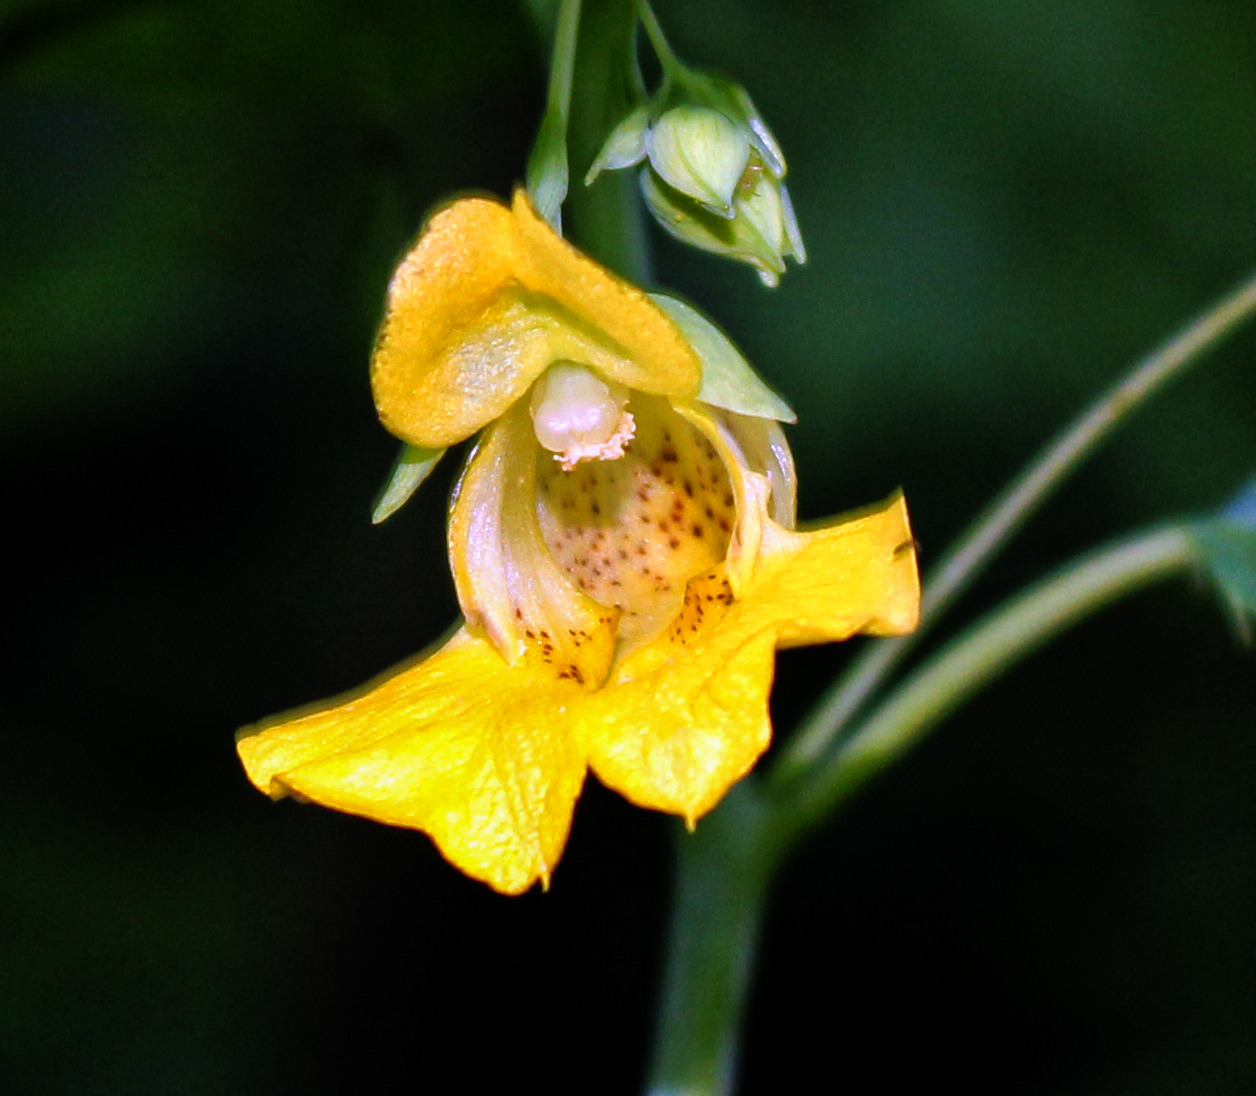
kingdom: Plantae
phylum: Tracheophyta
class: Magnoliopsida
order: Ericales
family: Balsaminaceae
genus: Impatiens
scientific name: Impatiens pallida
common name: Pale snapweed
